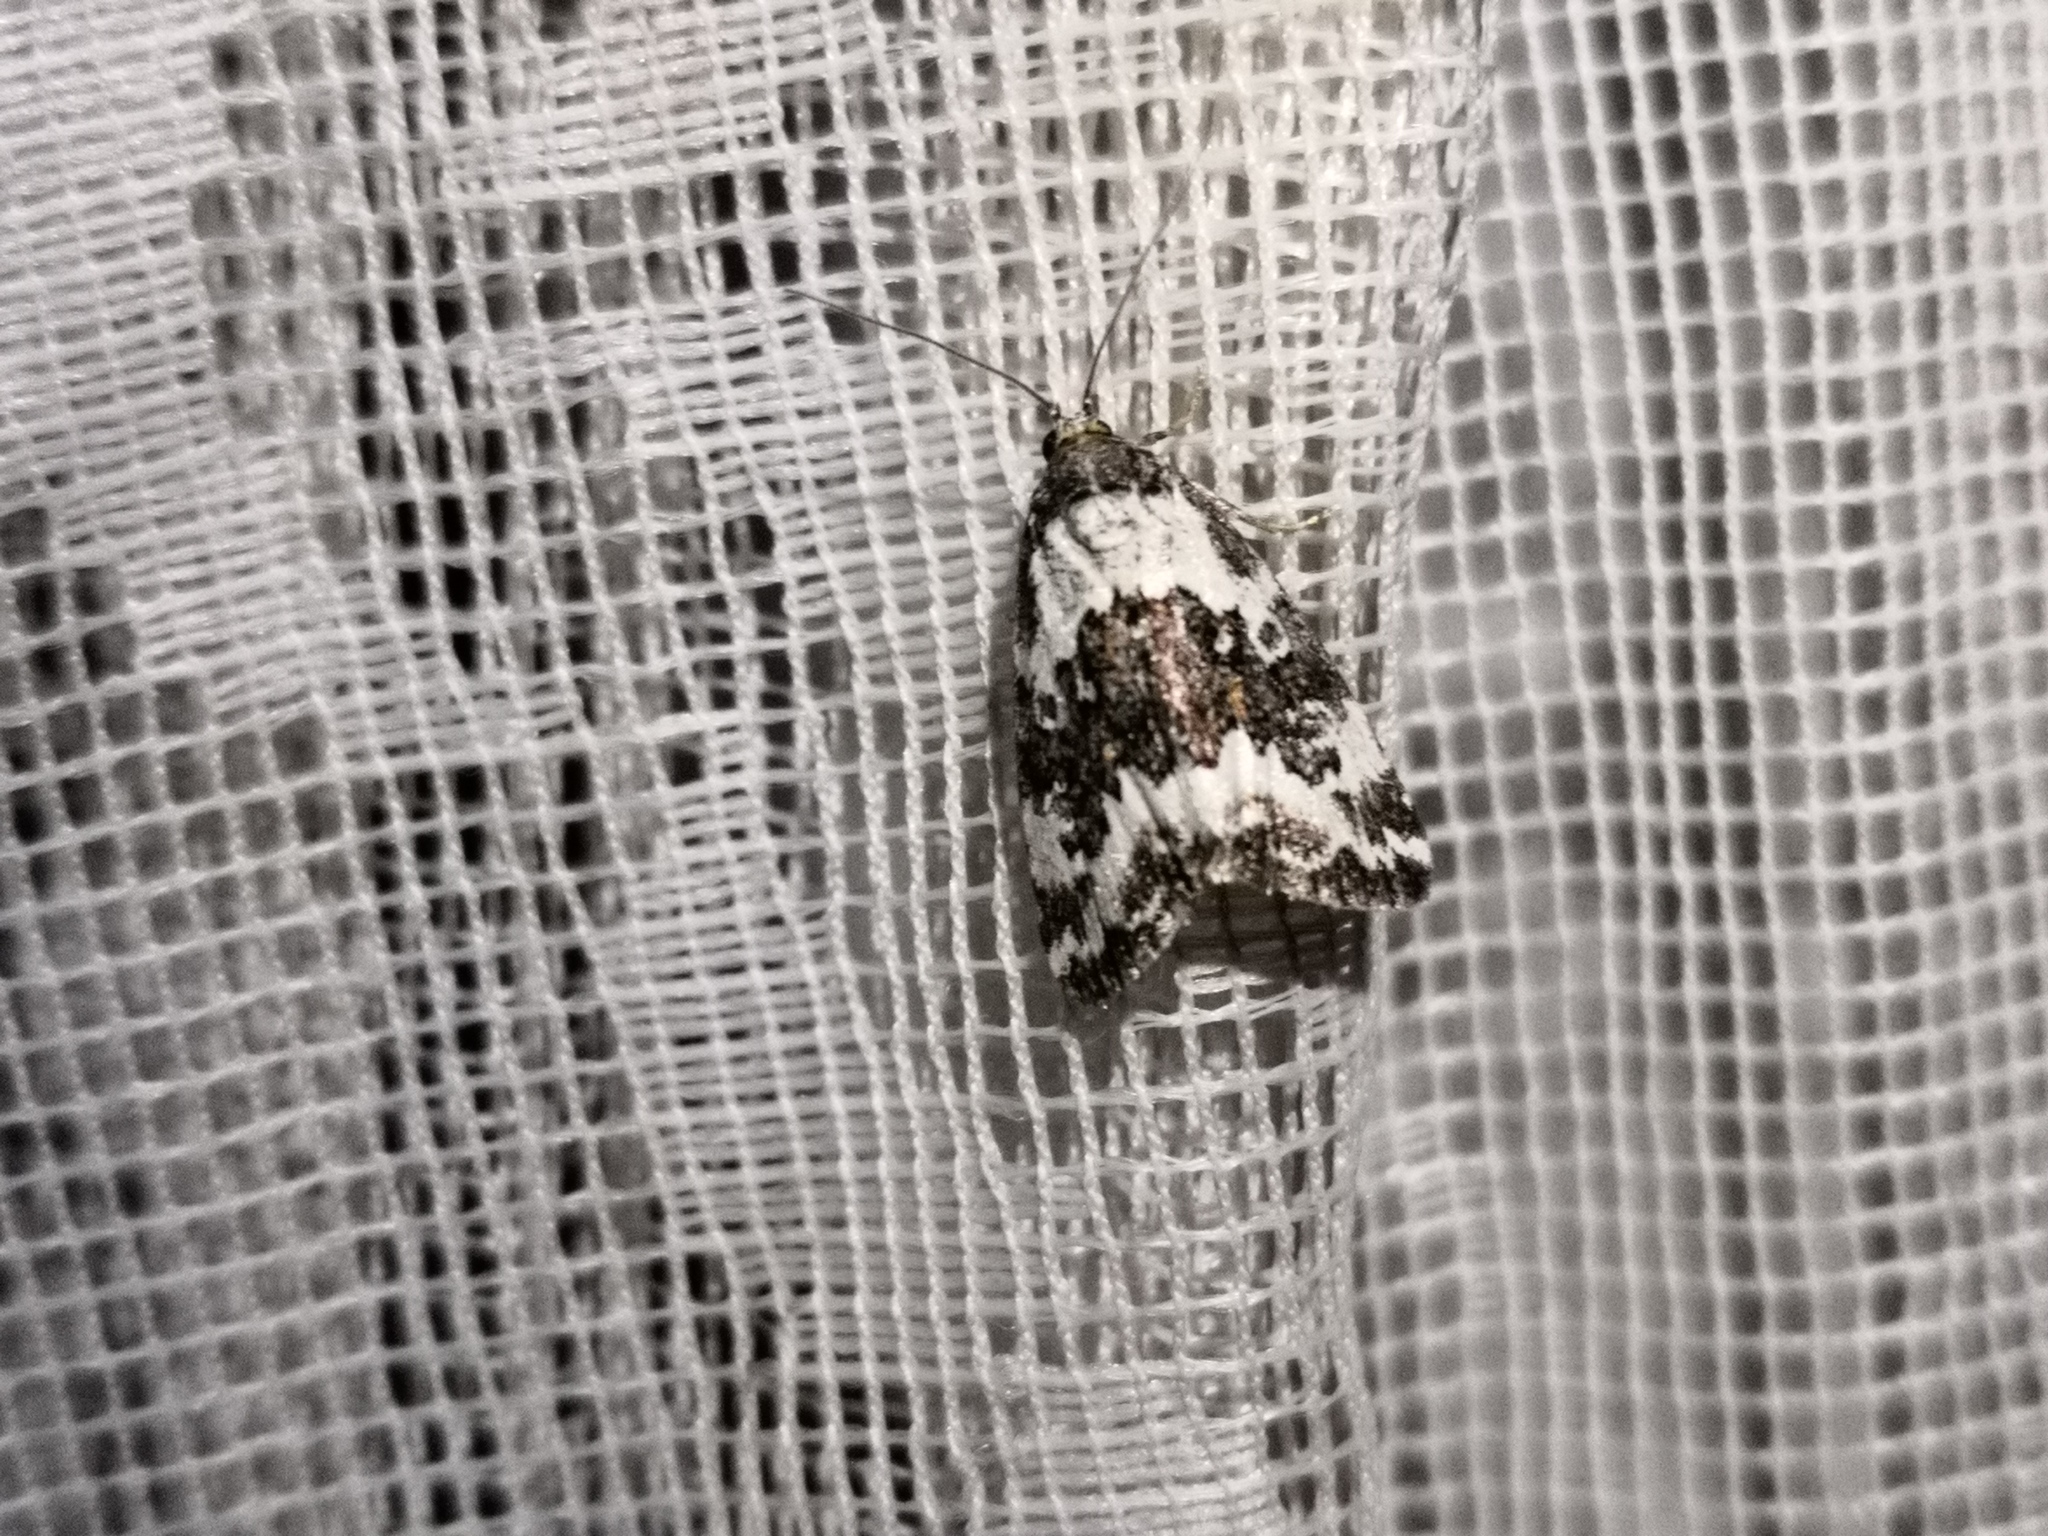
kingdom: Animalia
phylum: Arthropoda
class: Insecta
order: Lepidoptera
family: Noctuidae
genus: Deltote
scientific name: Deltote deceptoria
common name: Pretty marbled
